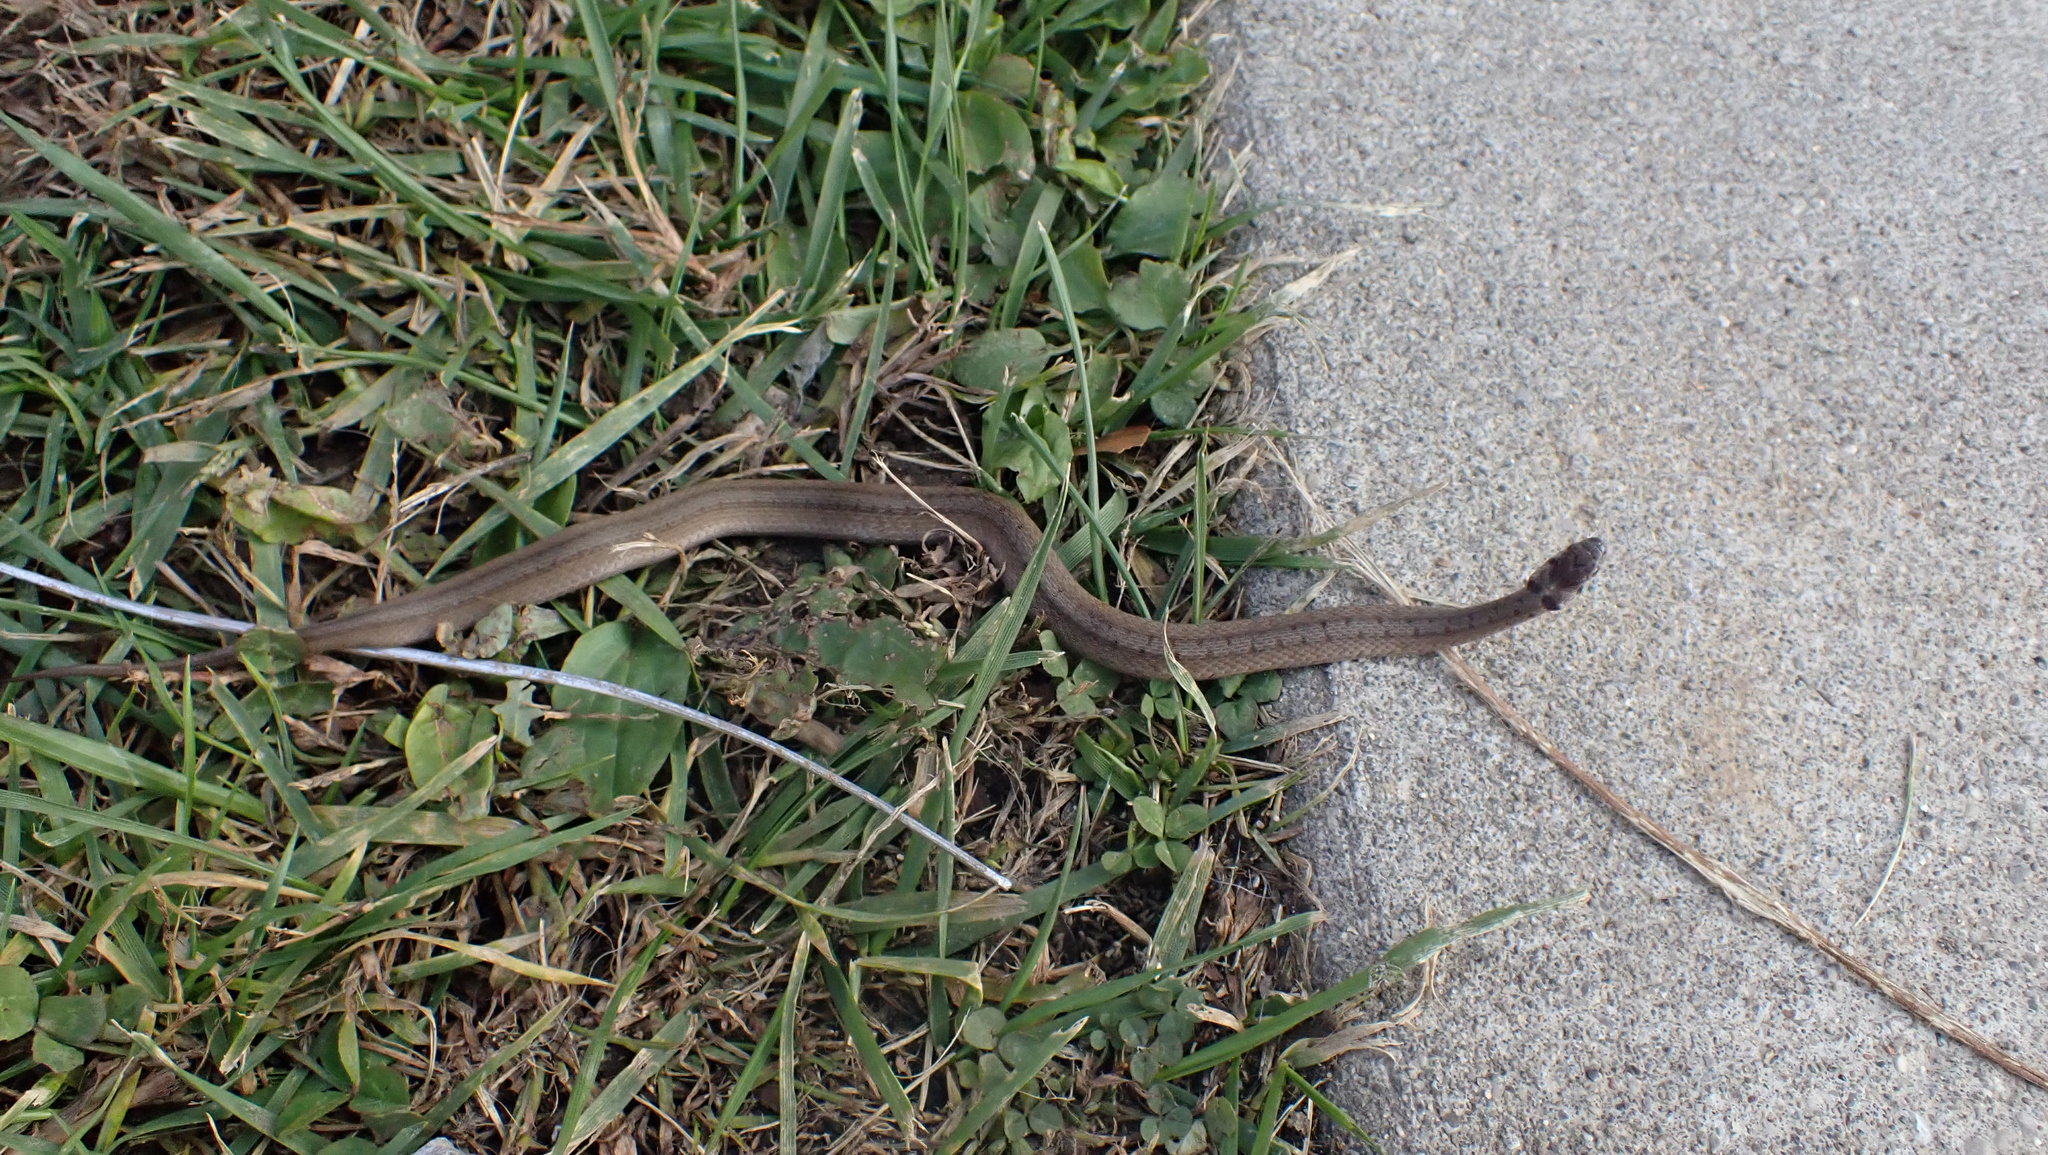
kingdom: Animalia
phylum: Chordata
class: Squamata
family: Colubridae
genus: Storeria
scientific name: Storeria dekayi
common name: (dekay’s) brown snake
